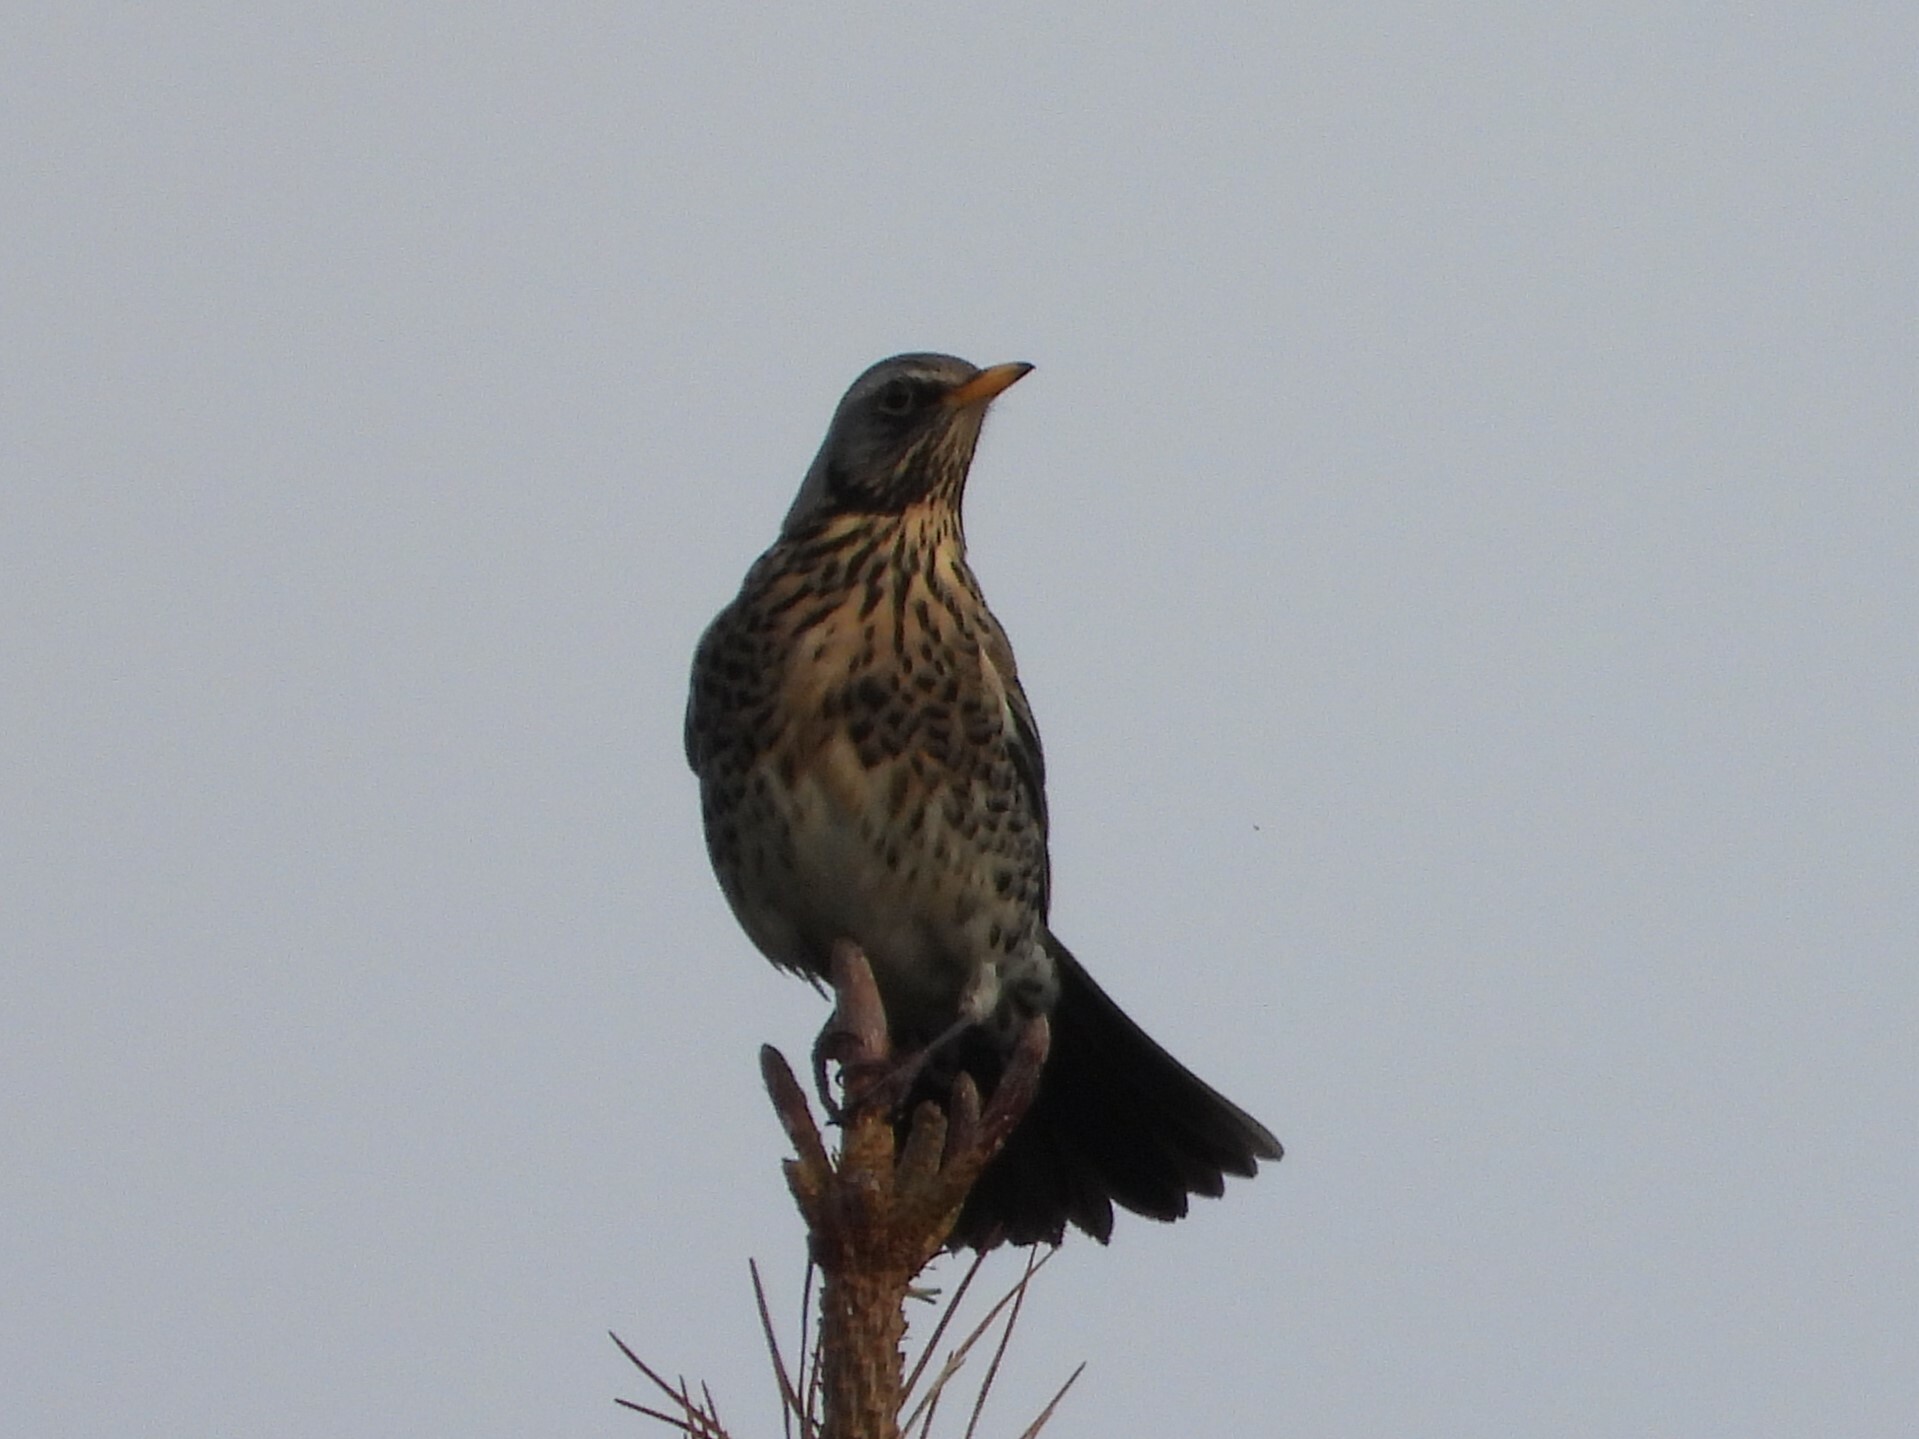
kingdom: Animalia
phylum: Chordata
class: Aves
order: Passeriformes
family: Turdidae
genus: Turdus
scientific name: Turdus pilaris
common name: Fieldfare
